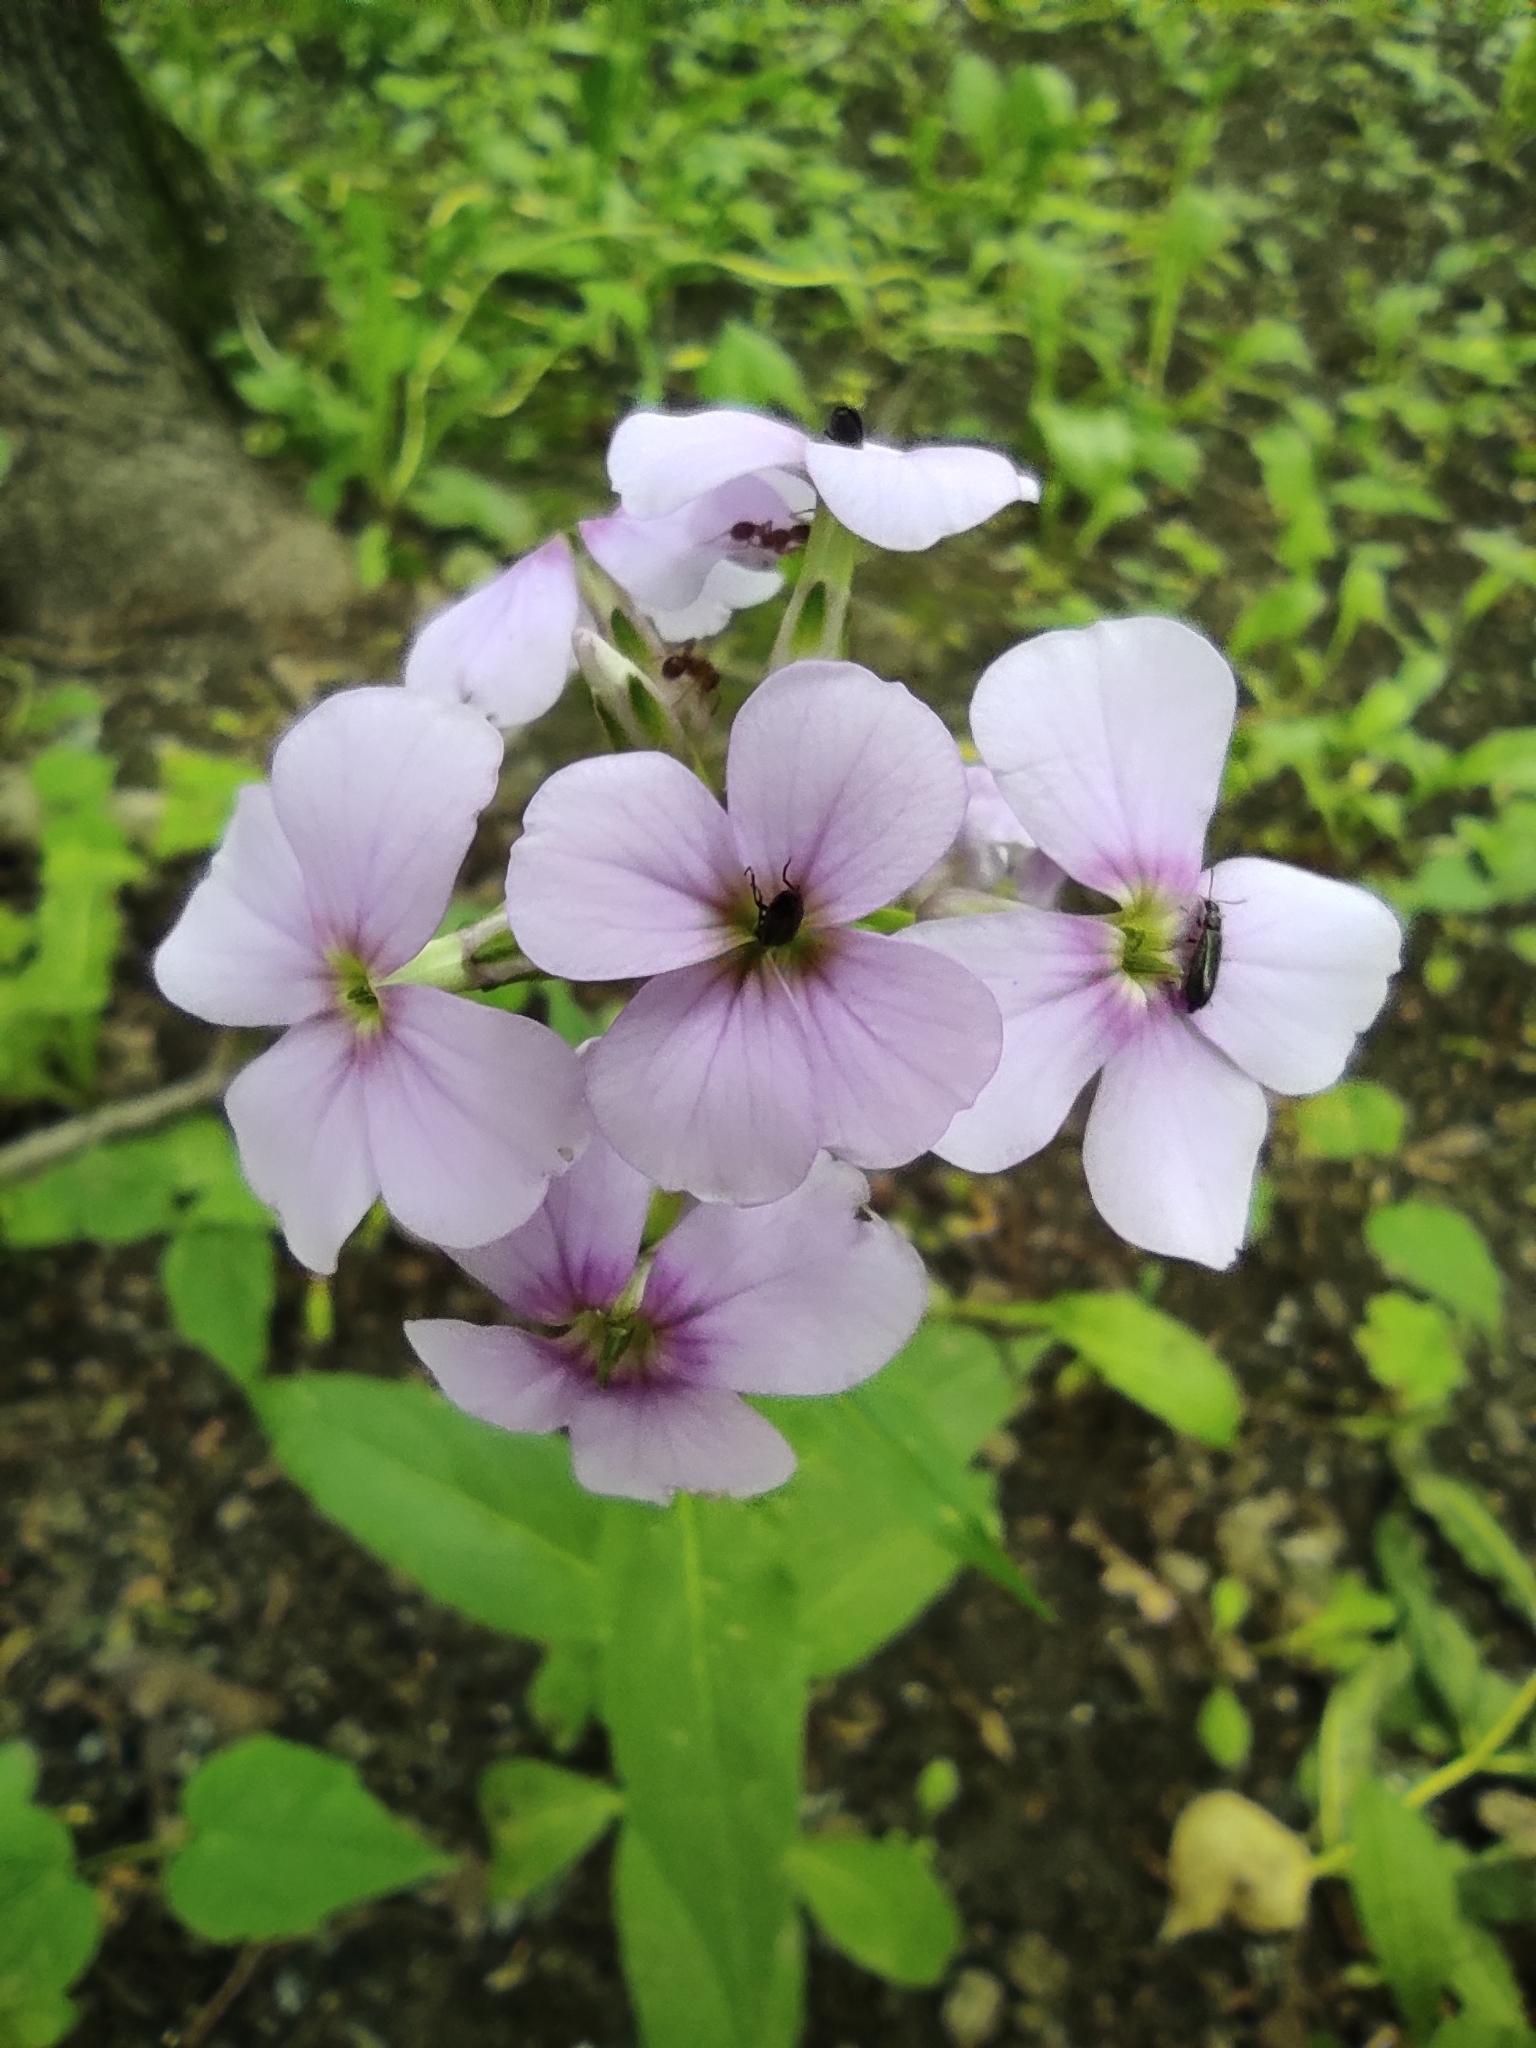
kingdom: Plantae
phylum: Tracheophyta
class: Magnoliopsida
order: Brassicales
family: Brassicaceae
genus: Hesperis
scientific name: Hesperis matronalis
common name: Dame's-violet
